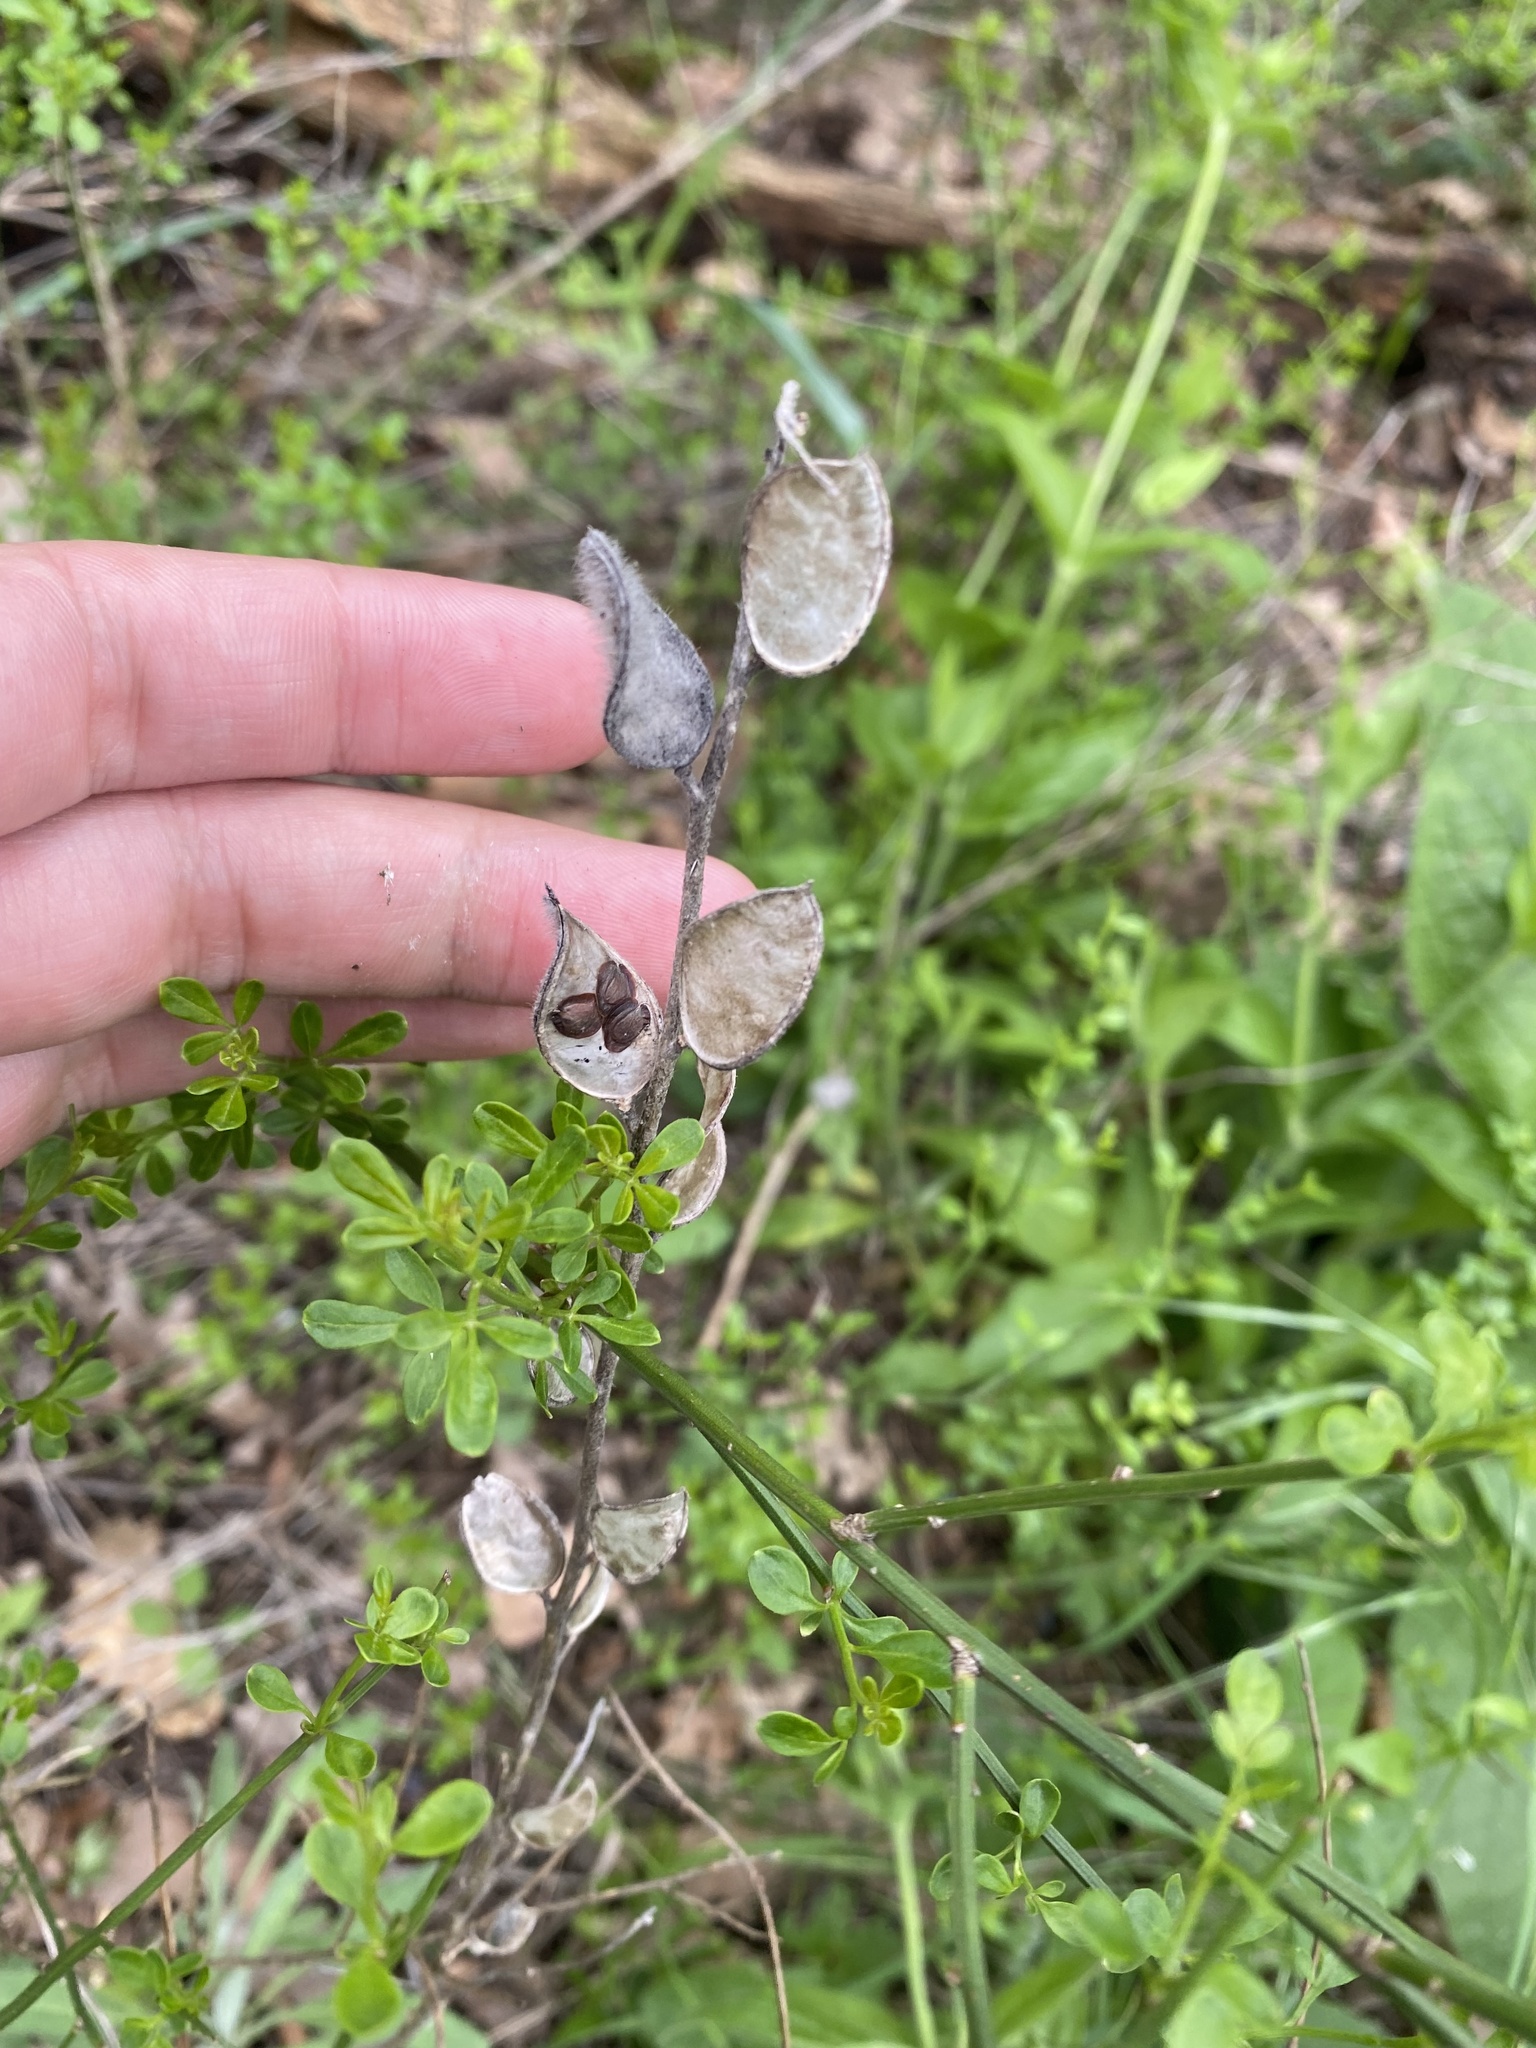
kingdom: Plantae
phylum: Tracheophyta
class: Magnoliopsida
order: Brassicales
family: Brassicaceae
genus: Fibigia
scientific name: Fibigia clypeata
